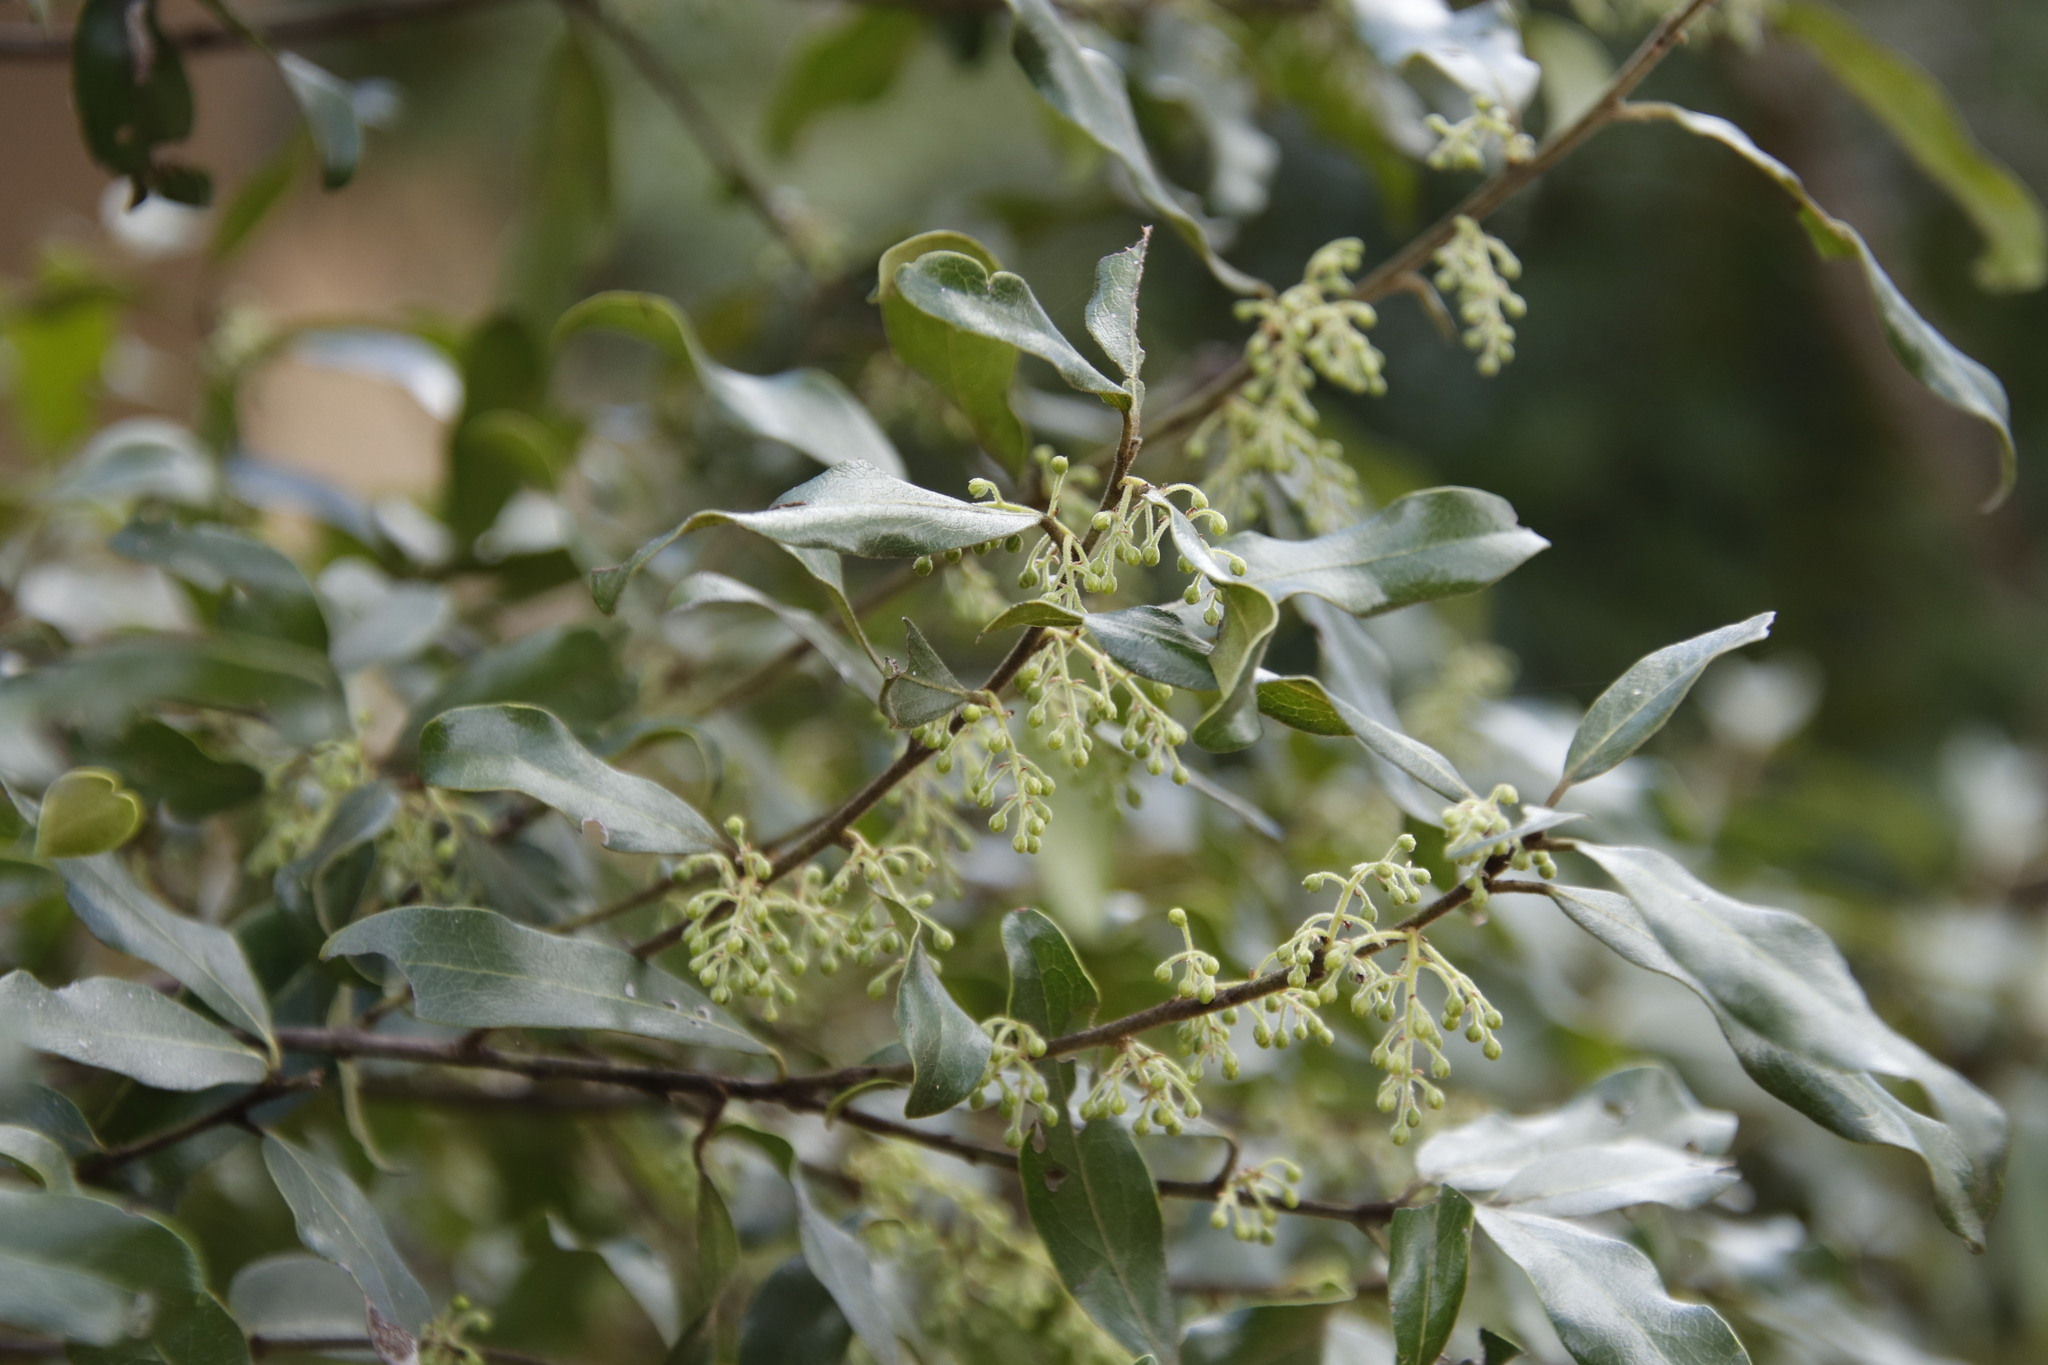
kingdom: Plantae
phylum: Tracheophyta
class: Magnoliopsida
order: Ericales
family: Ebenaceae
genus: Euclea
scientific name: Euclea natalensis
